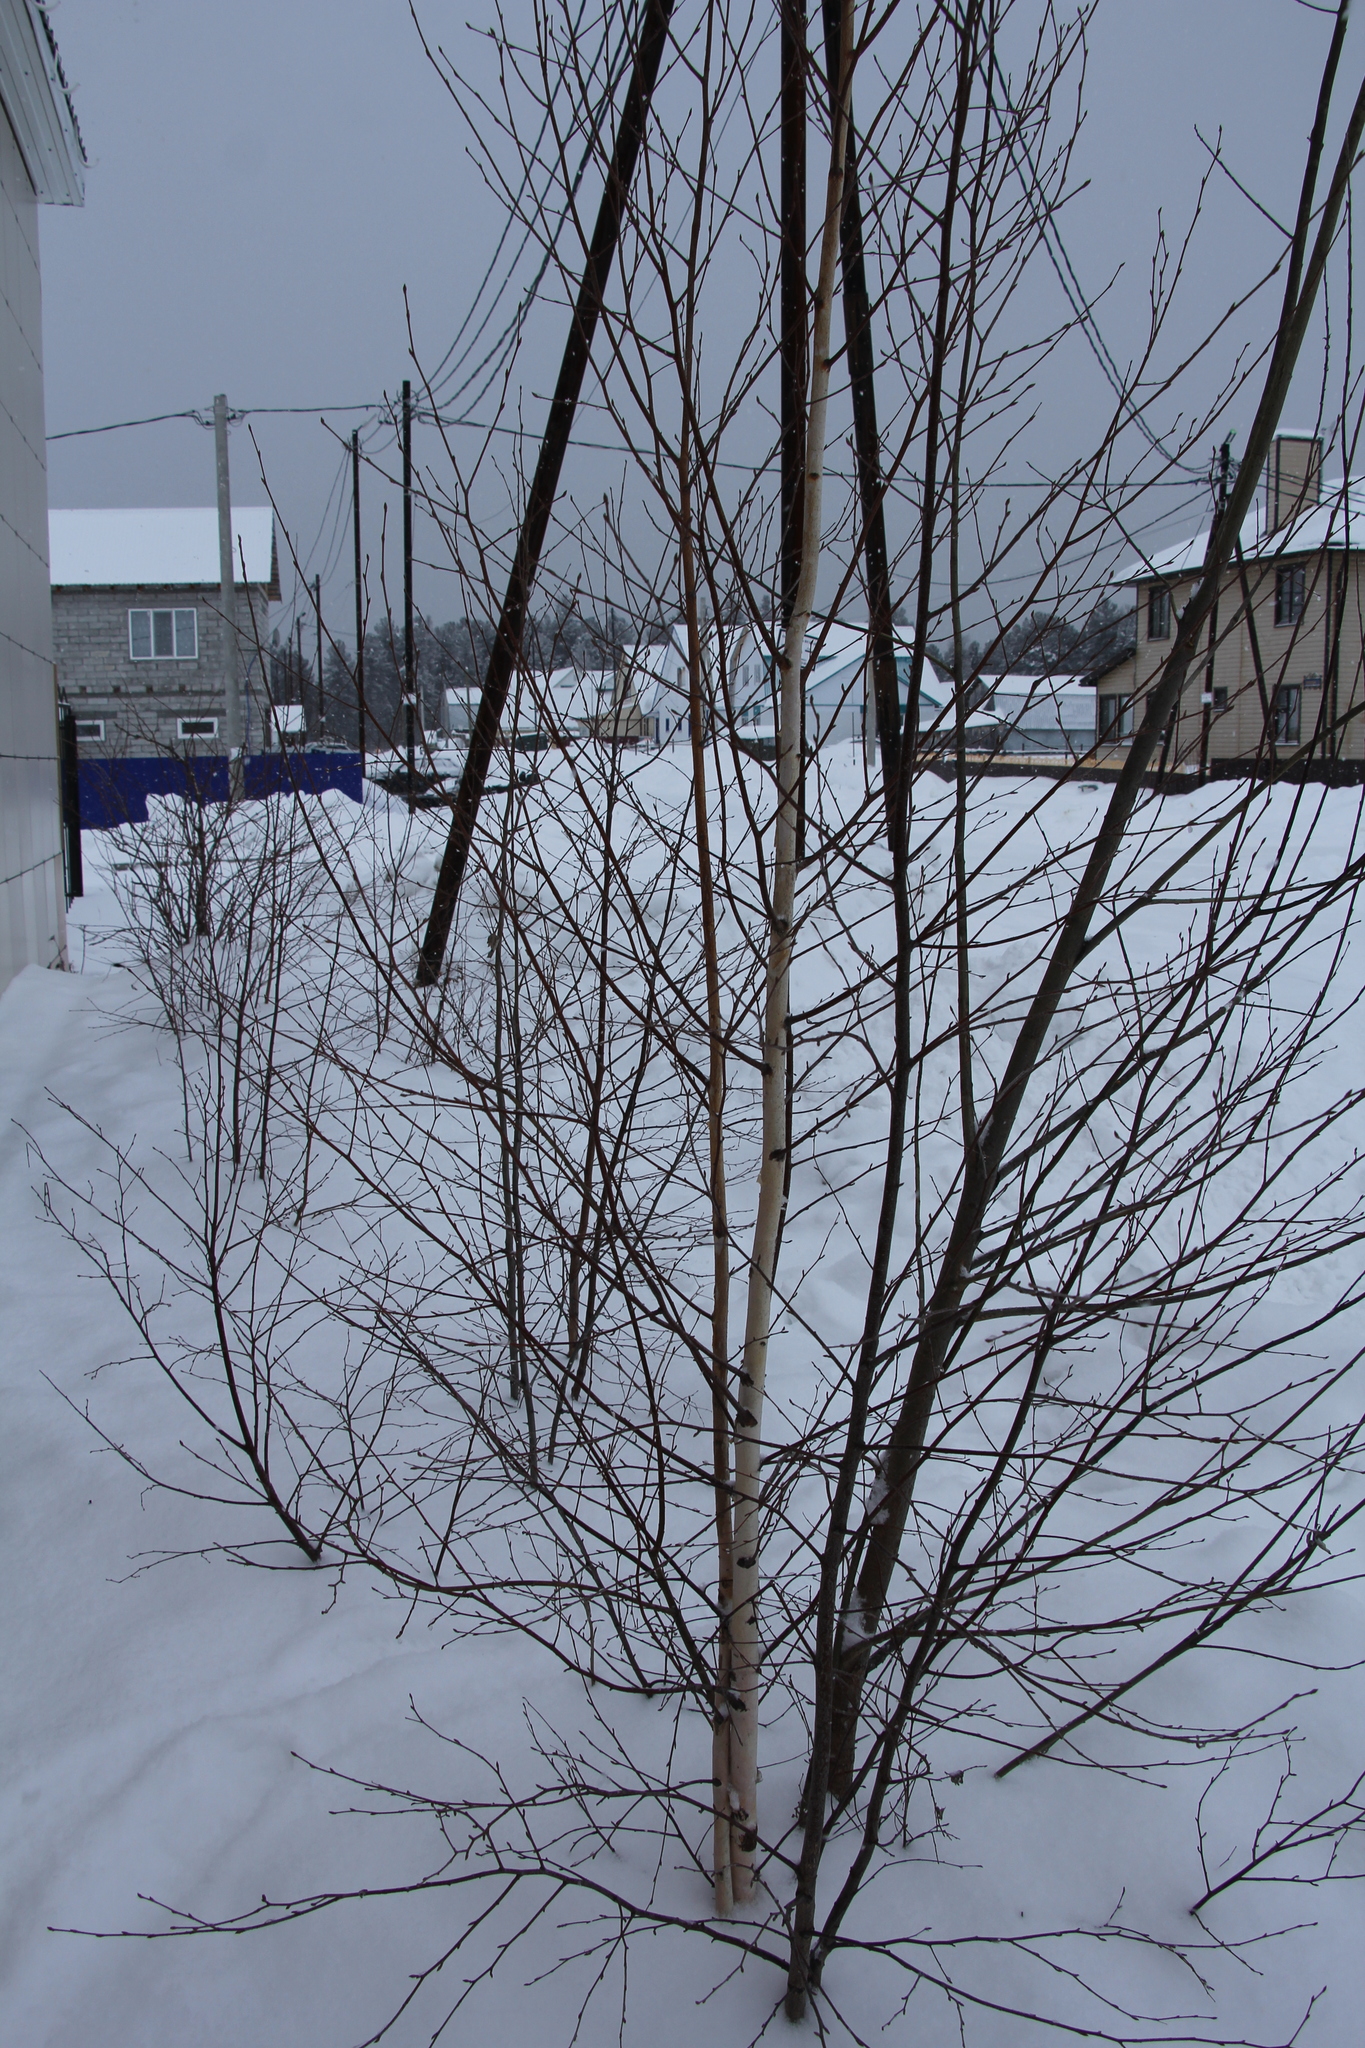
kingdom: Plantae
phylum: Tracheophyta
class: Magnoliopsida
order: Fagales
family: Betulaceae
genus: Betula
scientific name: Betula pendula
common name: Silver birch
